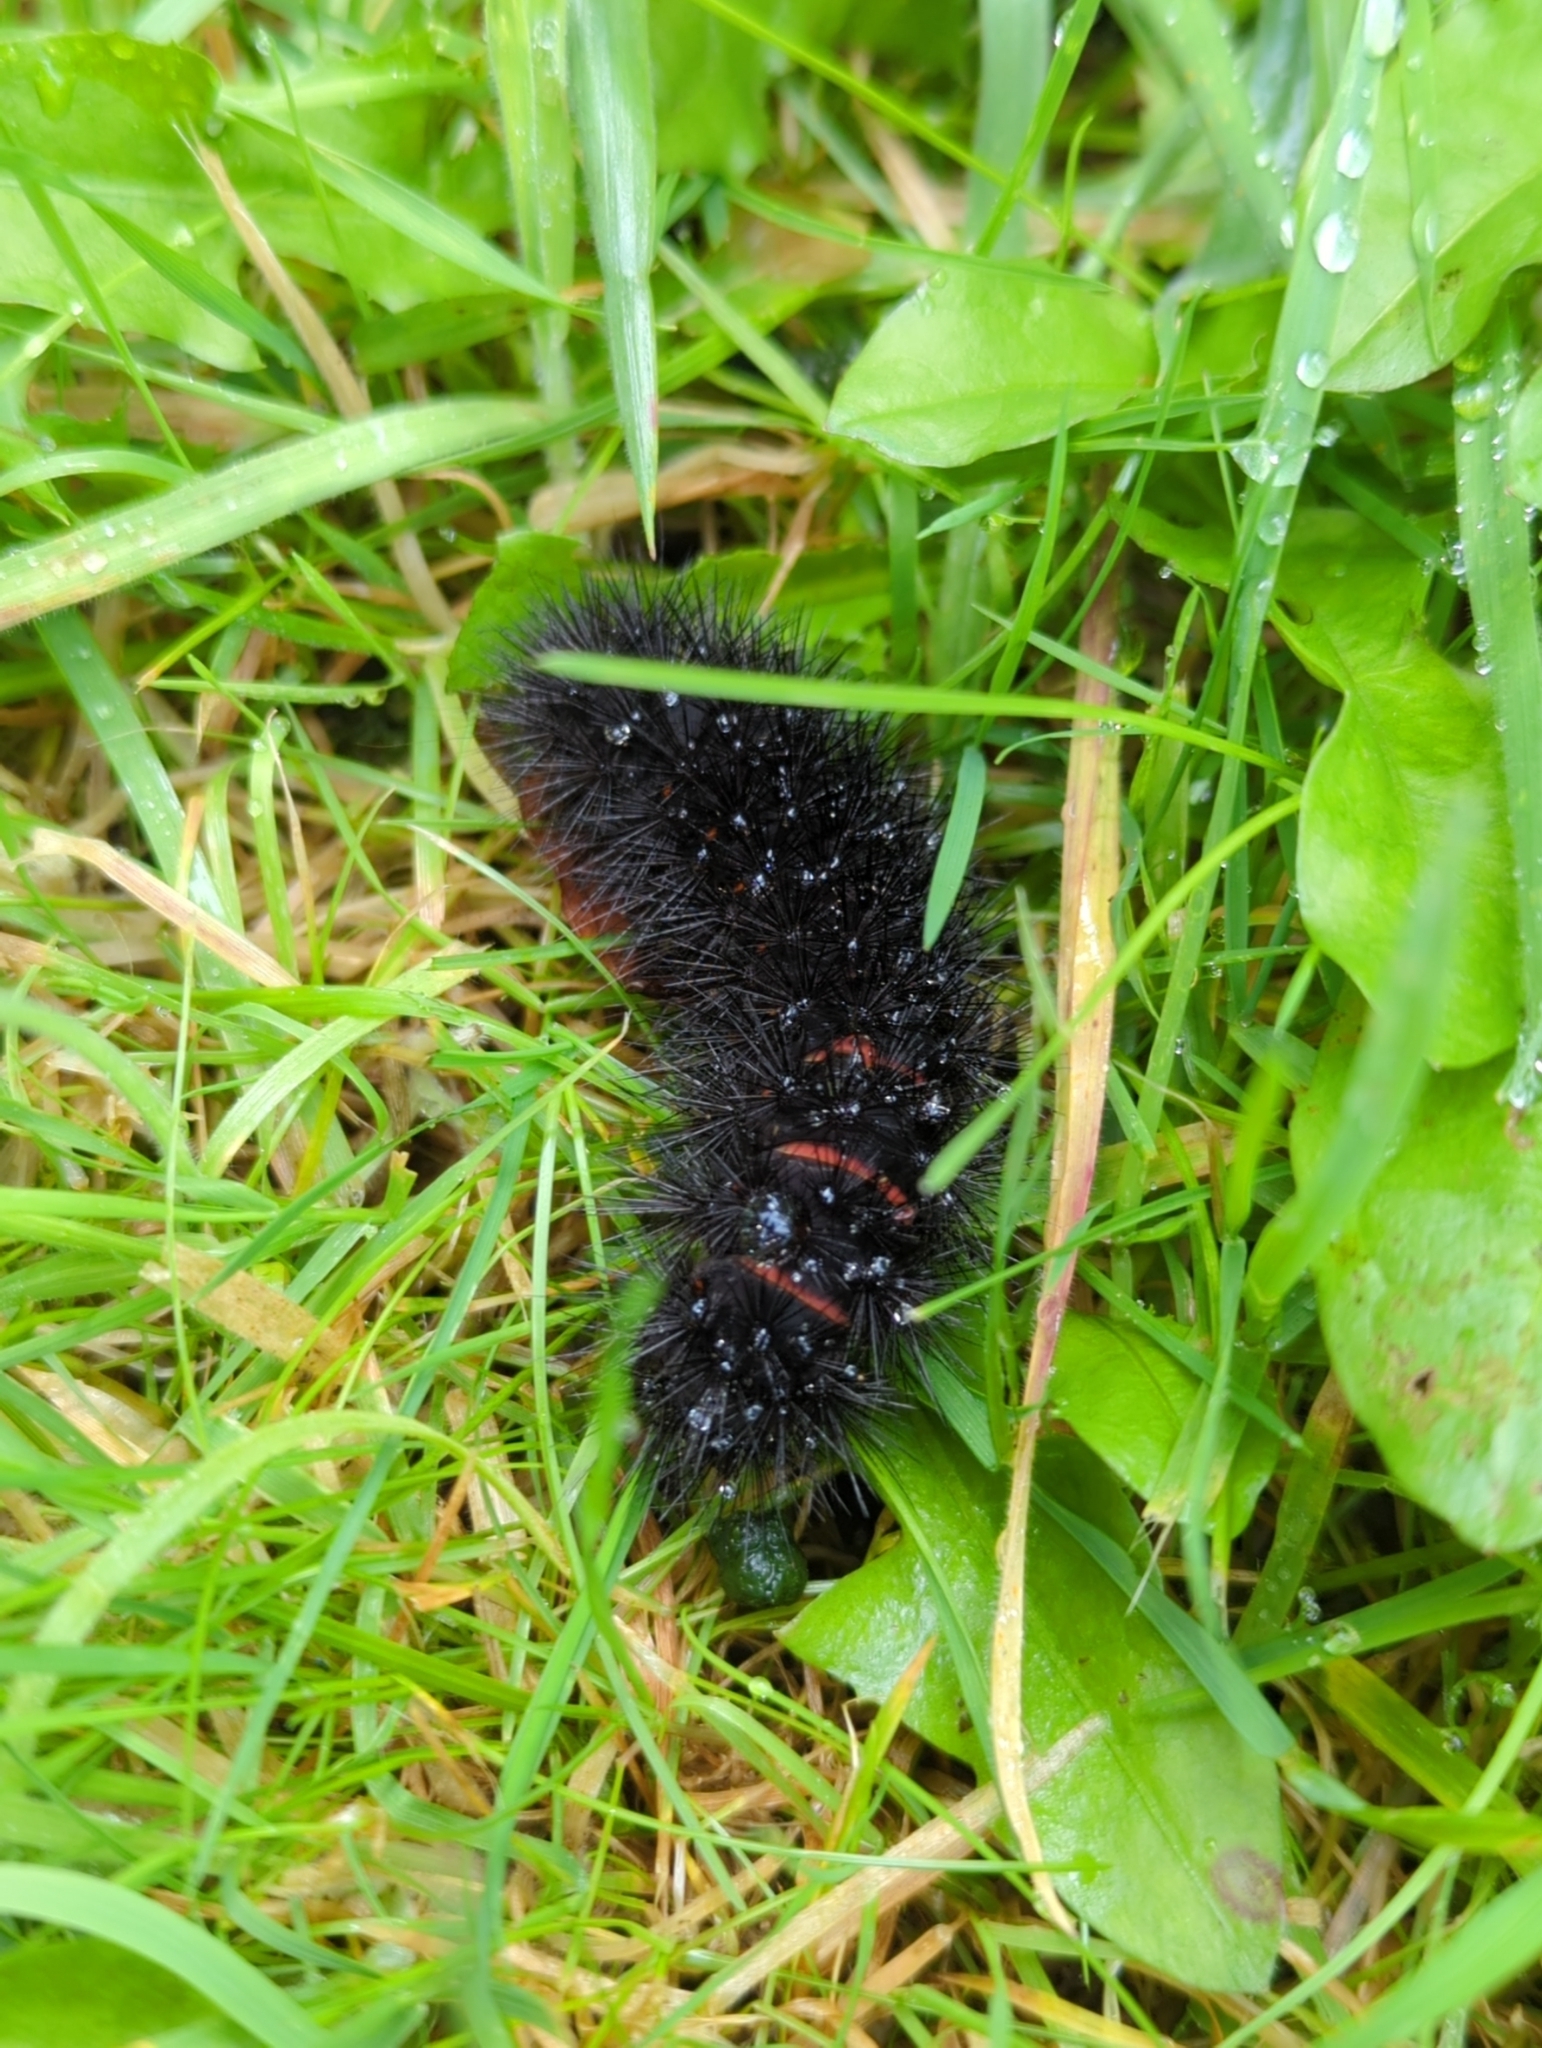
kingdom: Animalia
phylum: Arthropoda
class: Insecta
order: Lepidoptera
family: Erebidae
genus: Hypercompe
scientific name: Hypercompe scribonia
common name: Giant leopard moth
